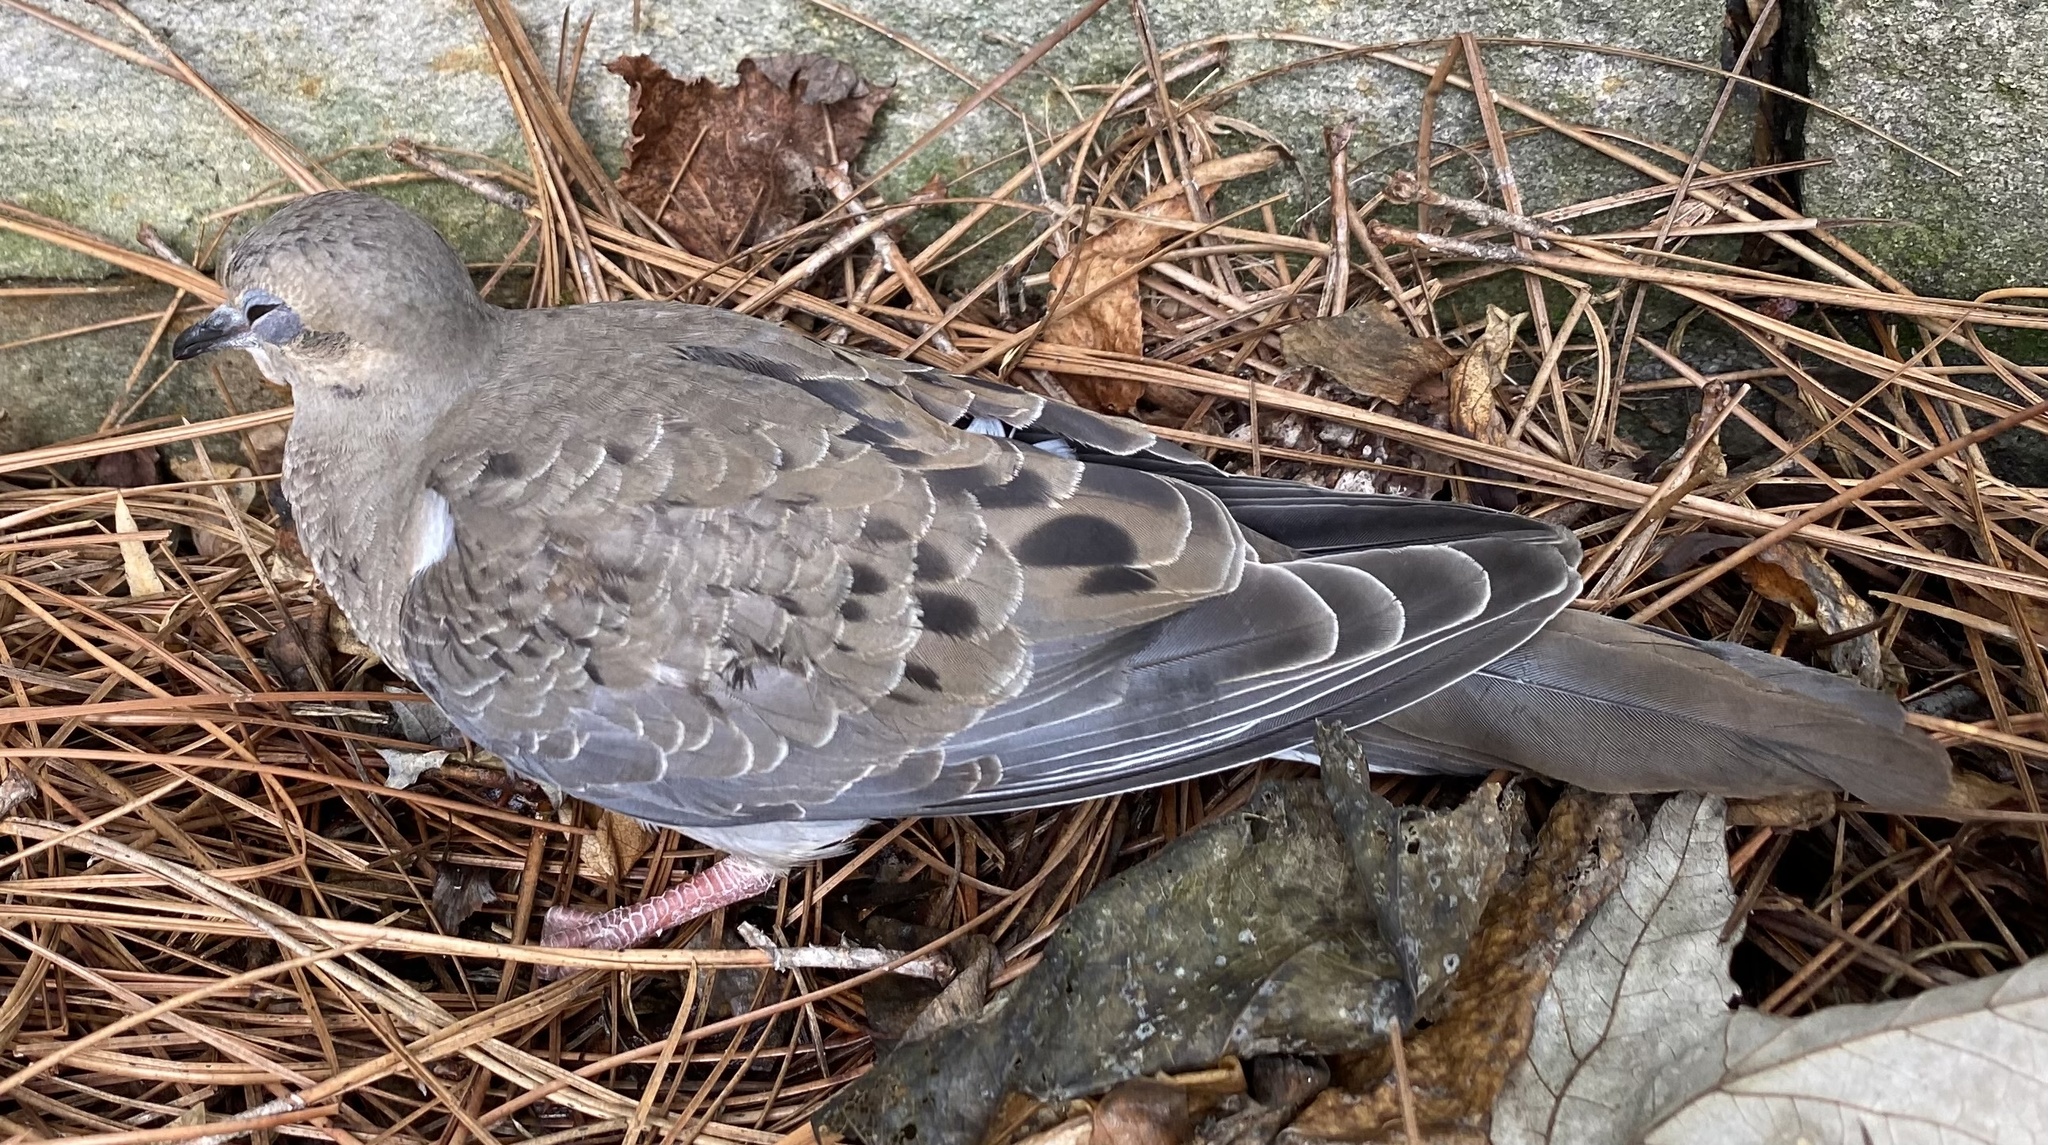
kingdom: Animalia
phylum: Chordata
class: Aves
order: Columbiformes
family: Columbidae
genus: Zenaida
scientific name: Zenaida macroura
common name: Mourning dove
